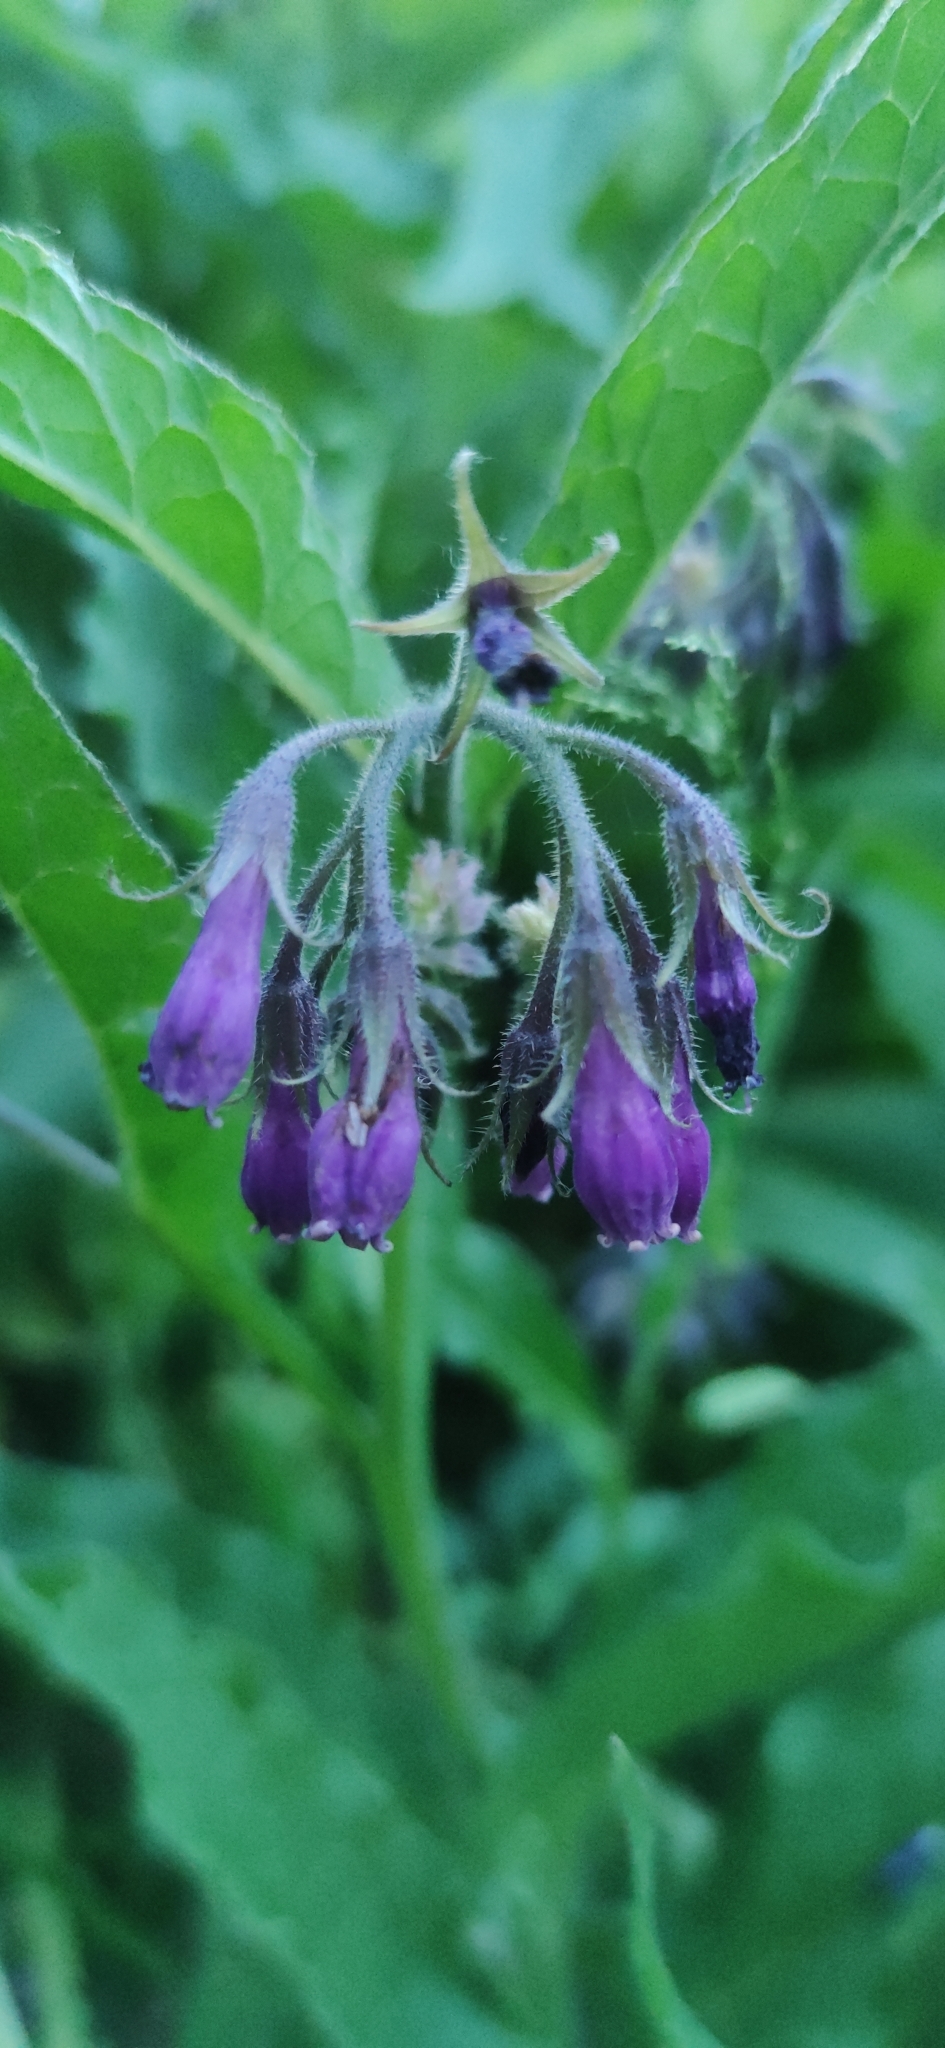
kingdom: Plantae
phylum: Tracheophyta
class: Magnoliopsida
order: Boraginales
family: Boraginaceae
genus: Symphytum
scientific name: Symphytum officinale
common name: Common comfrey
